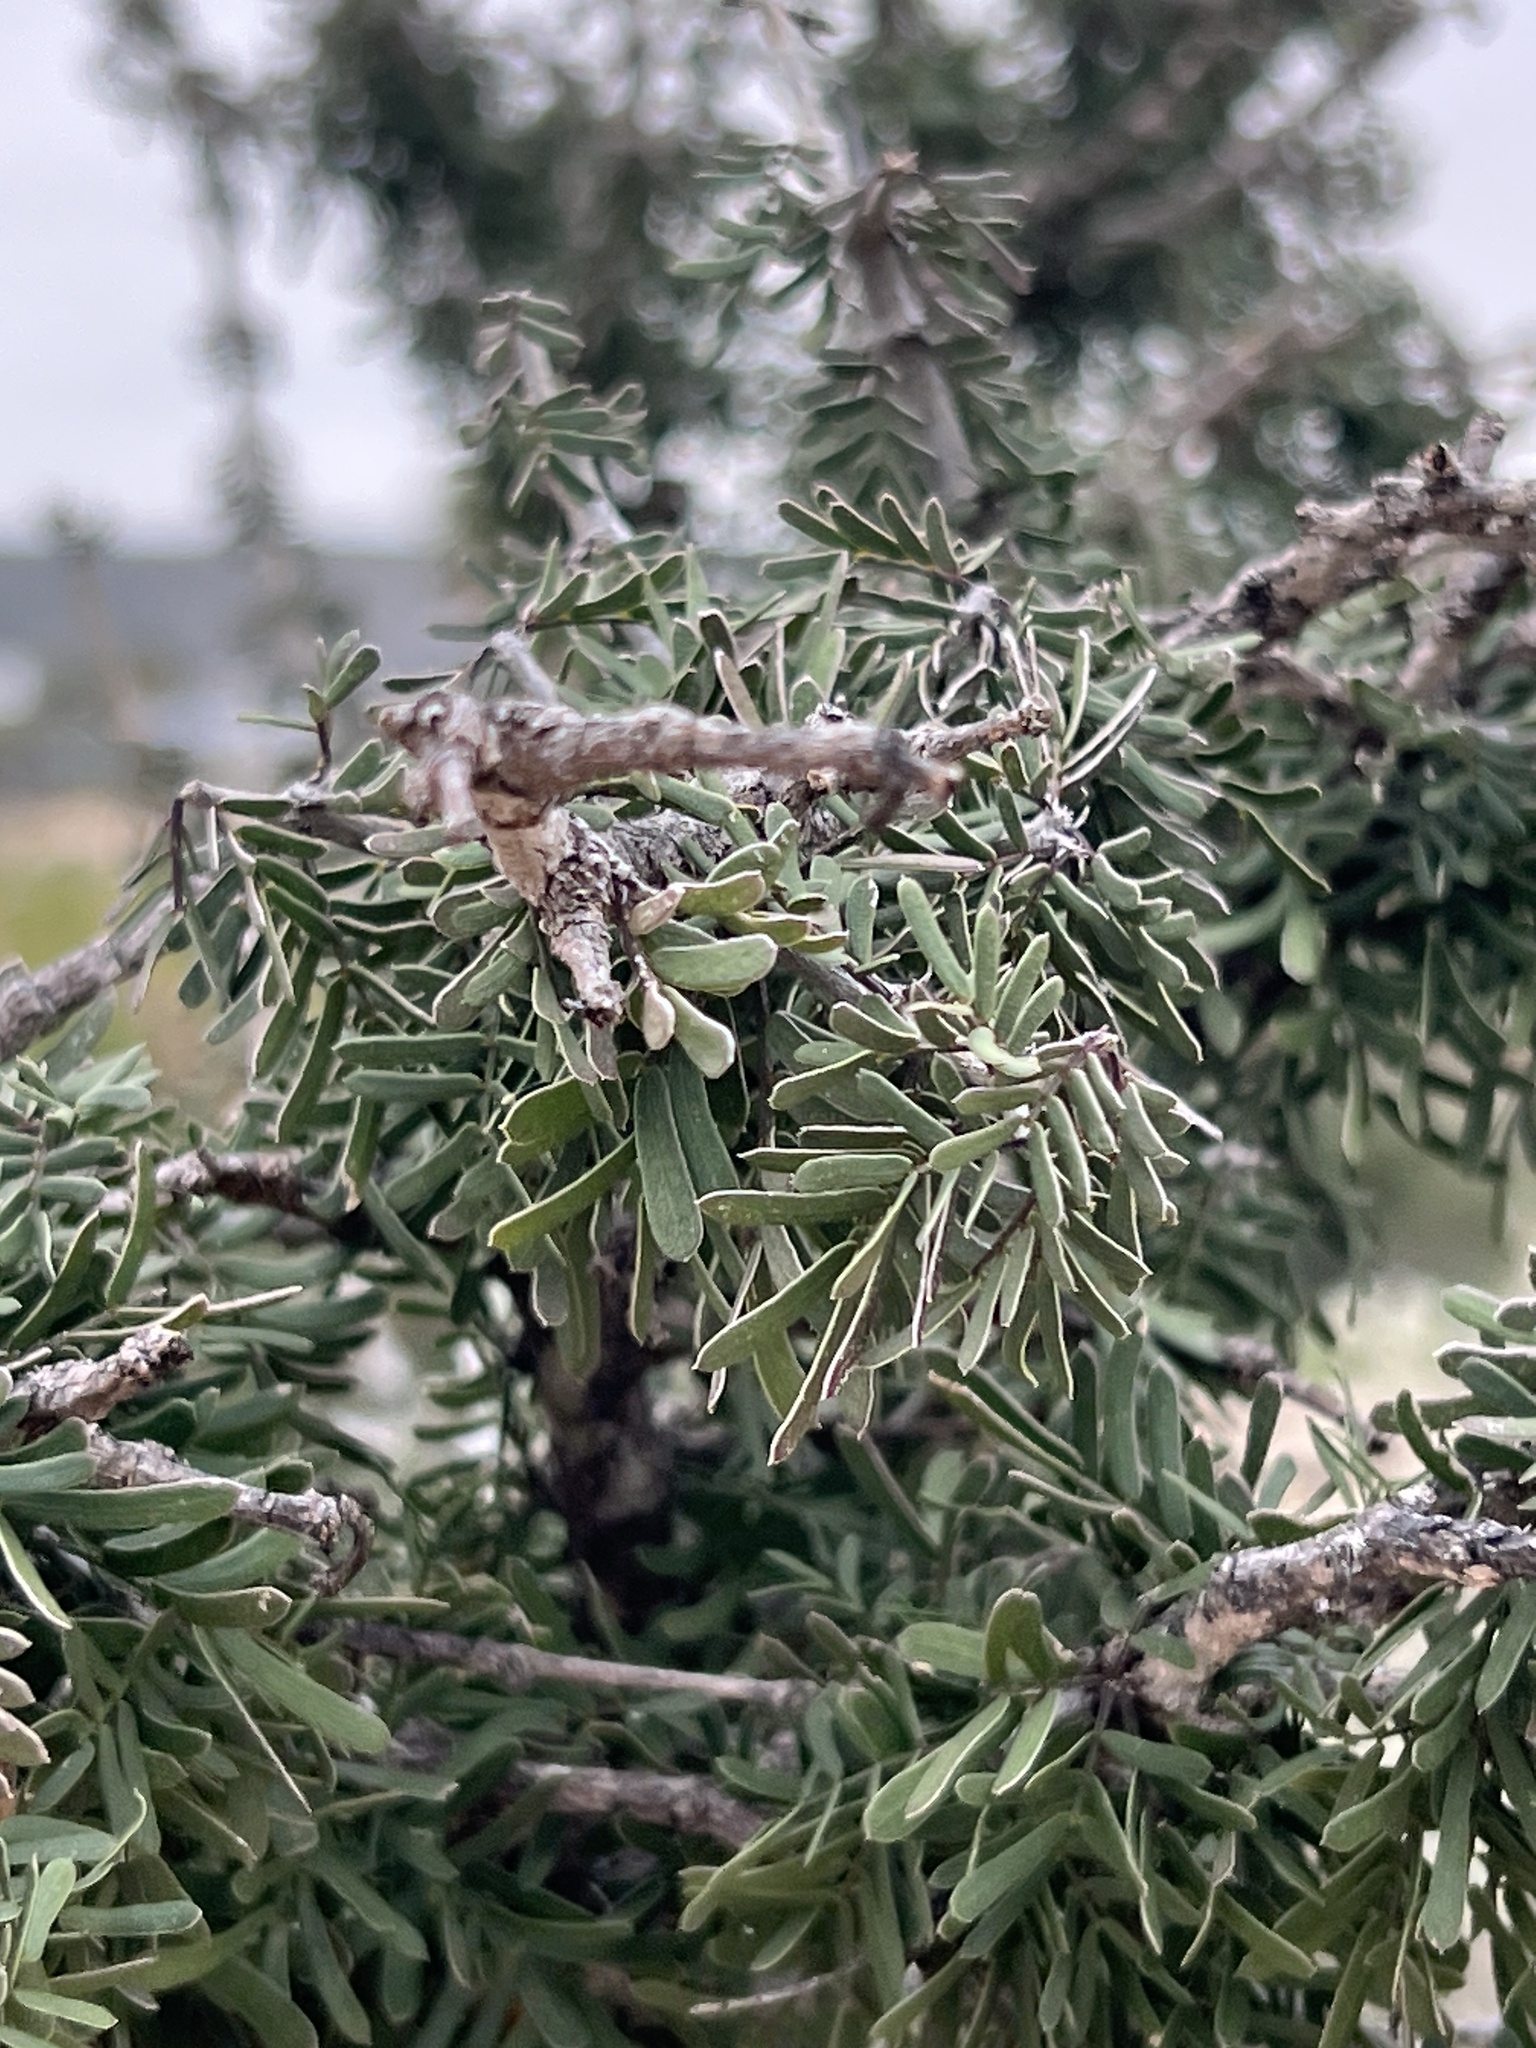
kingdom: Plantae
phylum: Tracheophyta
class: Magnoliopsida
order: Zygophyllales
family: Zygophyllaceae
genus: Porlieria
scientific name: Porlieria angustifolia
